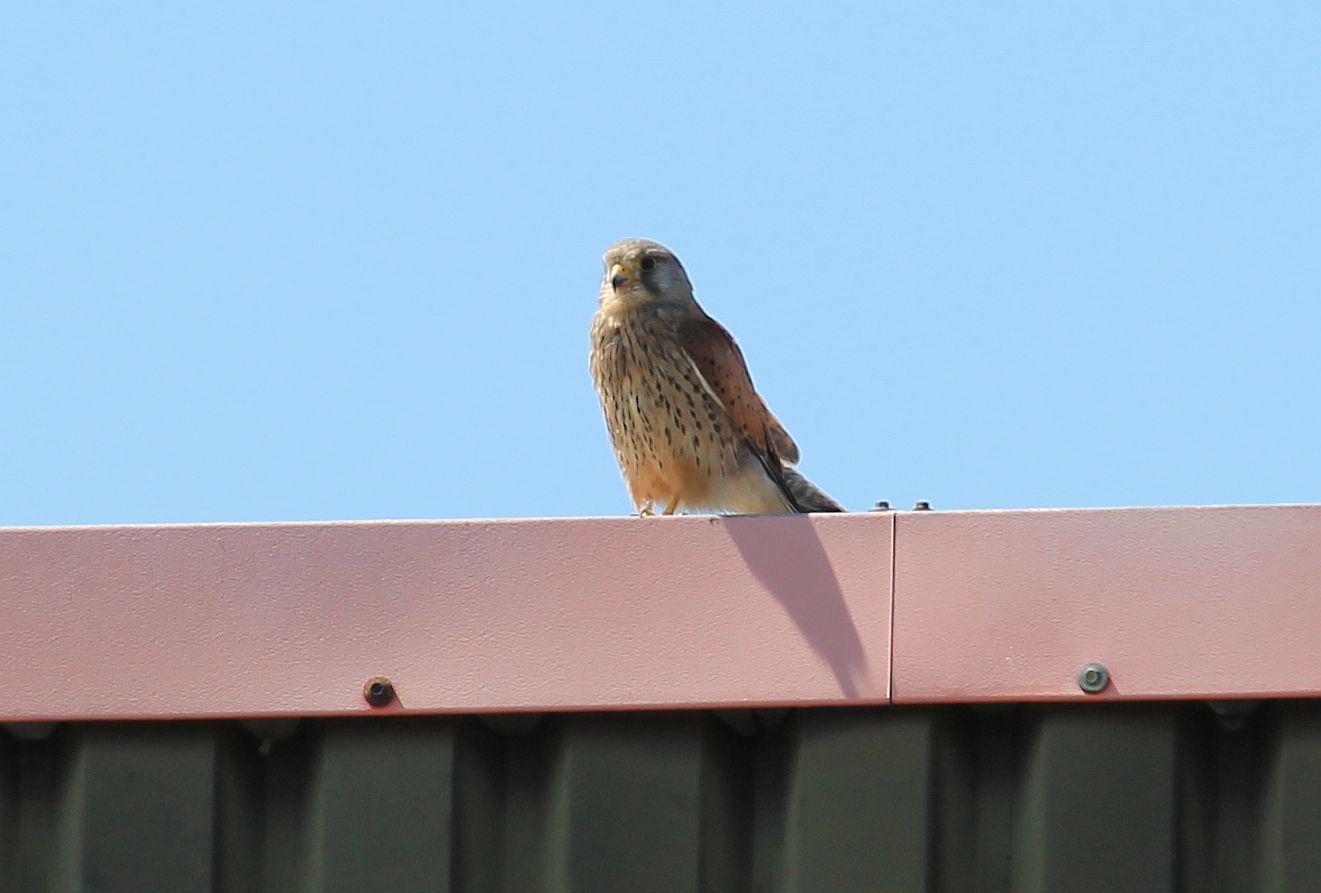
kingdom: Animalia
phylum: Chordata
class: Aves
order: Falconiformes
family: Falconidae
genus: Falco
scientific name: Falco tinnunculus
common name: Common kestrel
